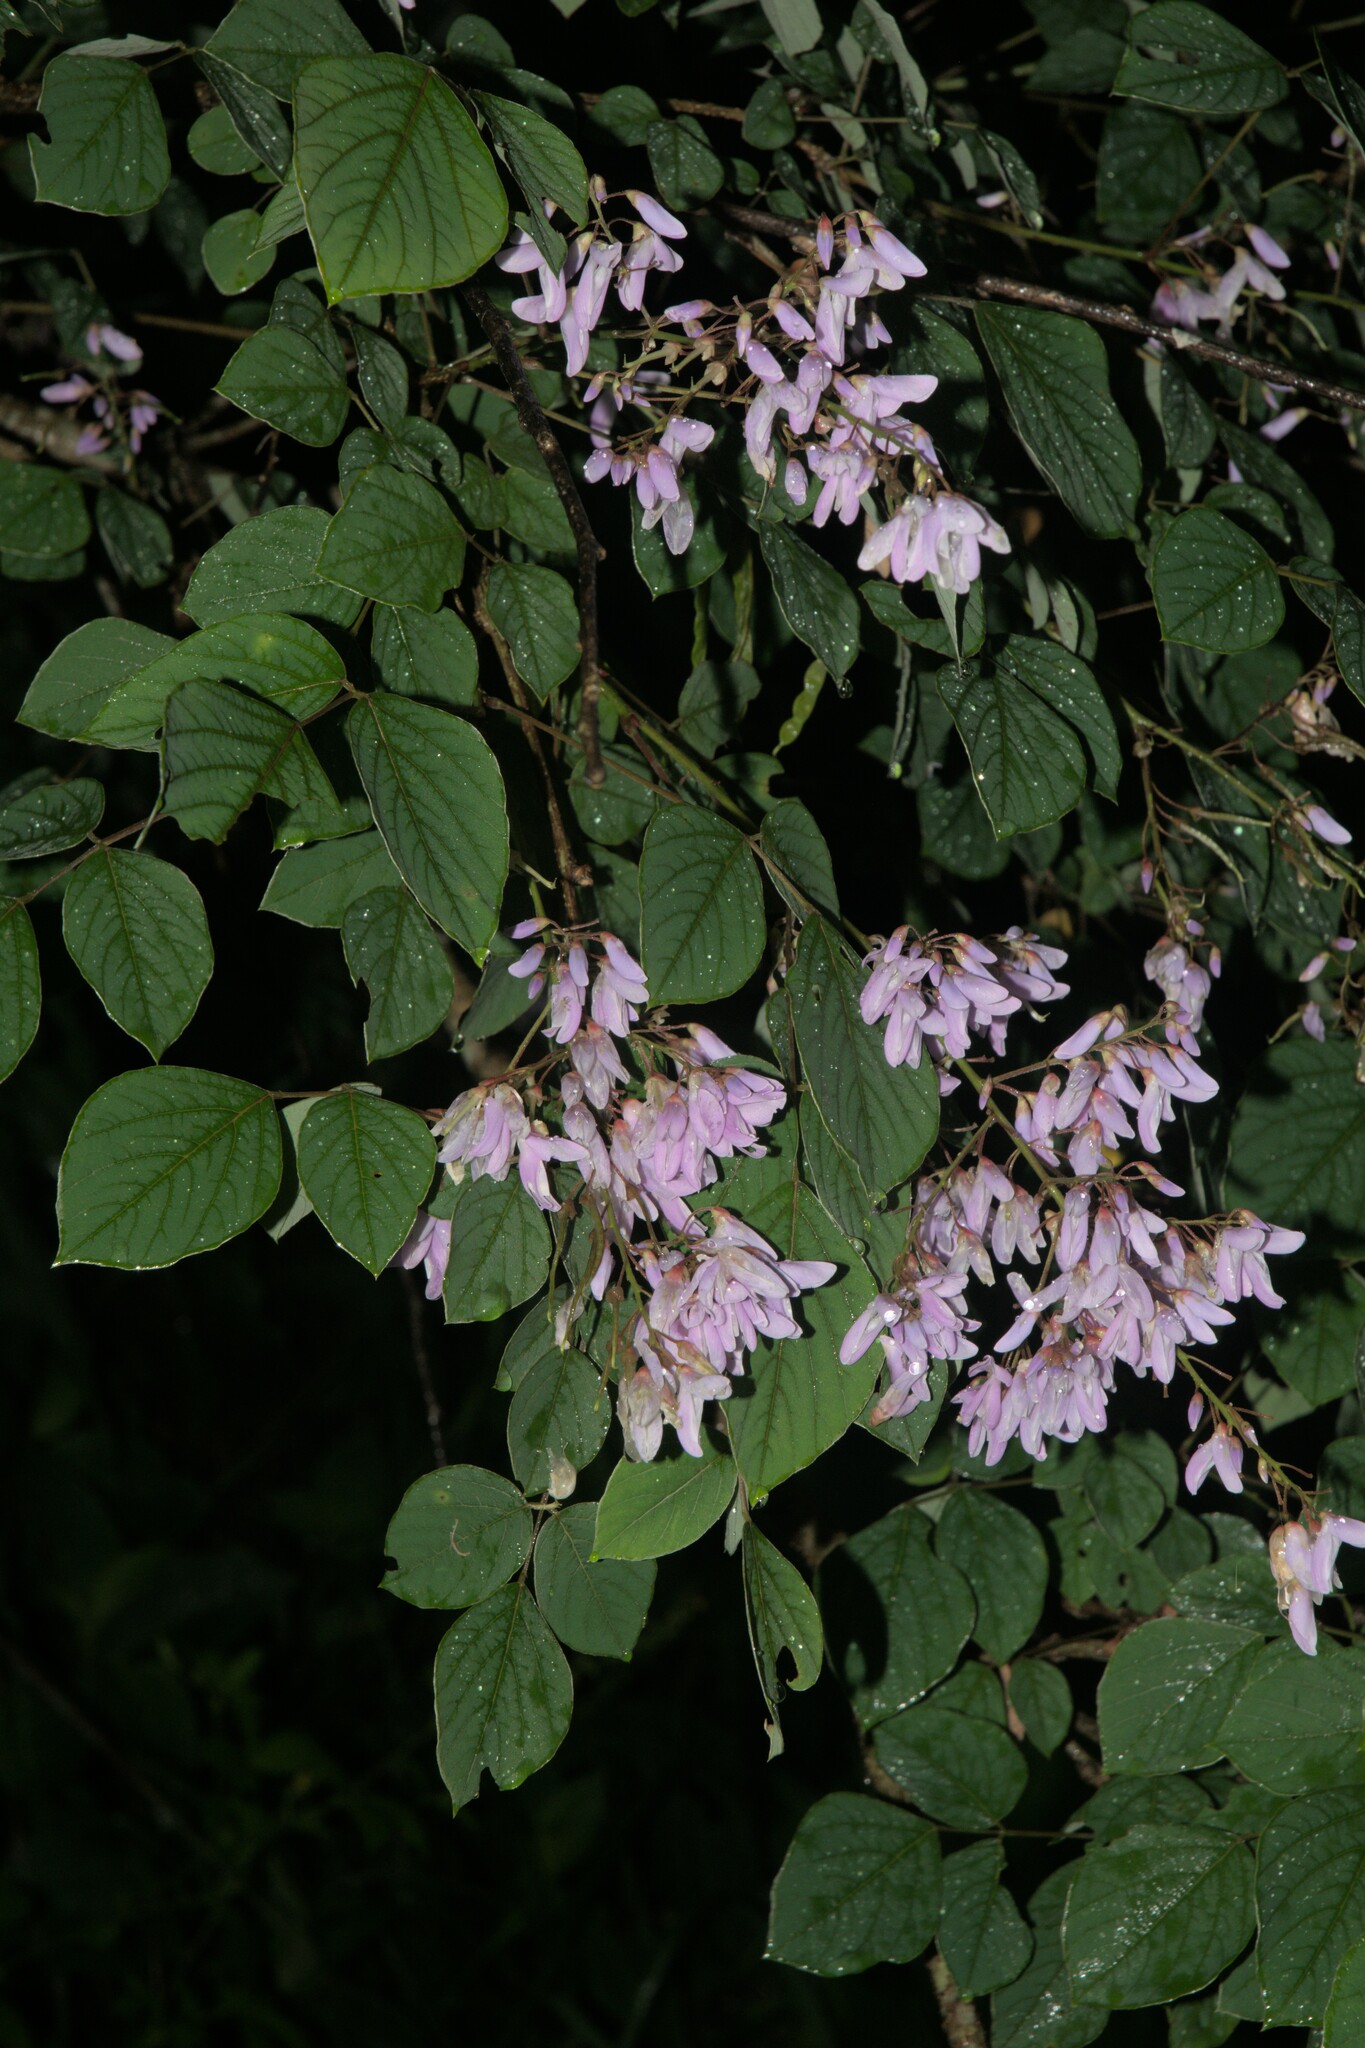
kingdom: Plantae
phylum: Tracheophyta
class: Magnoliopsida
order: Fabales
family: Fabaceae
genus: Sunhangia
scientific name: Sunhangia elegans
